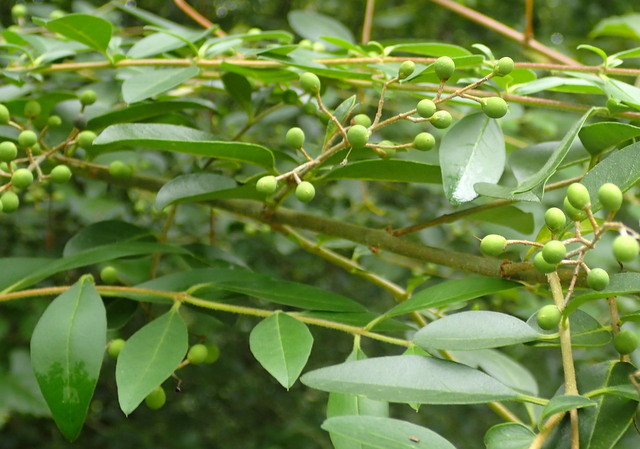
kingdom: Plantae
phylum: Tracheophyta
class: Magnoliopsida
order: Lamiales
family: Oleaceae
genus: Ligustrum
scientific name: Ligustrum sinense
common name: Chinese privet
